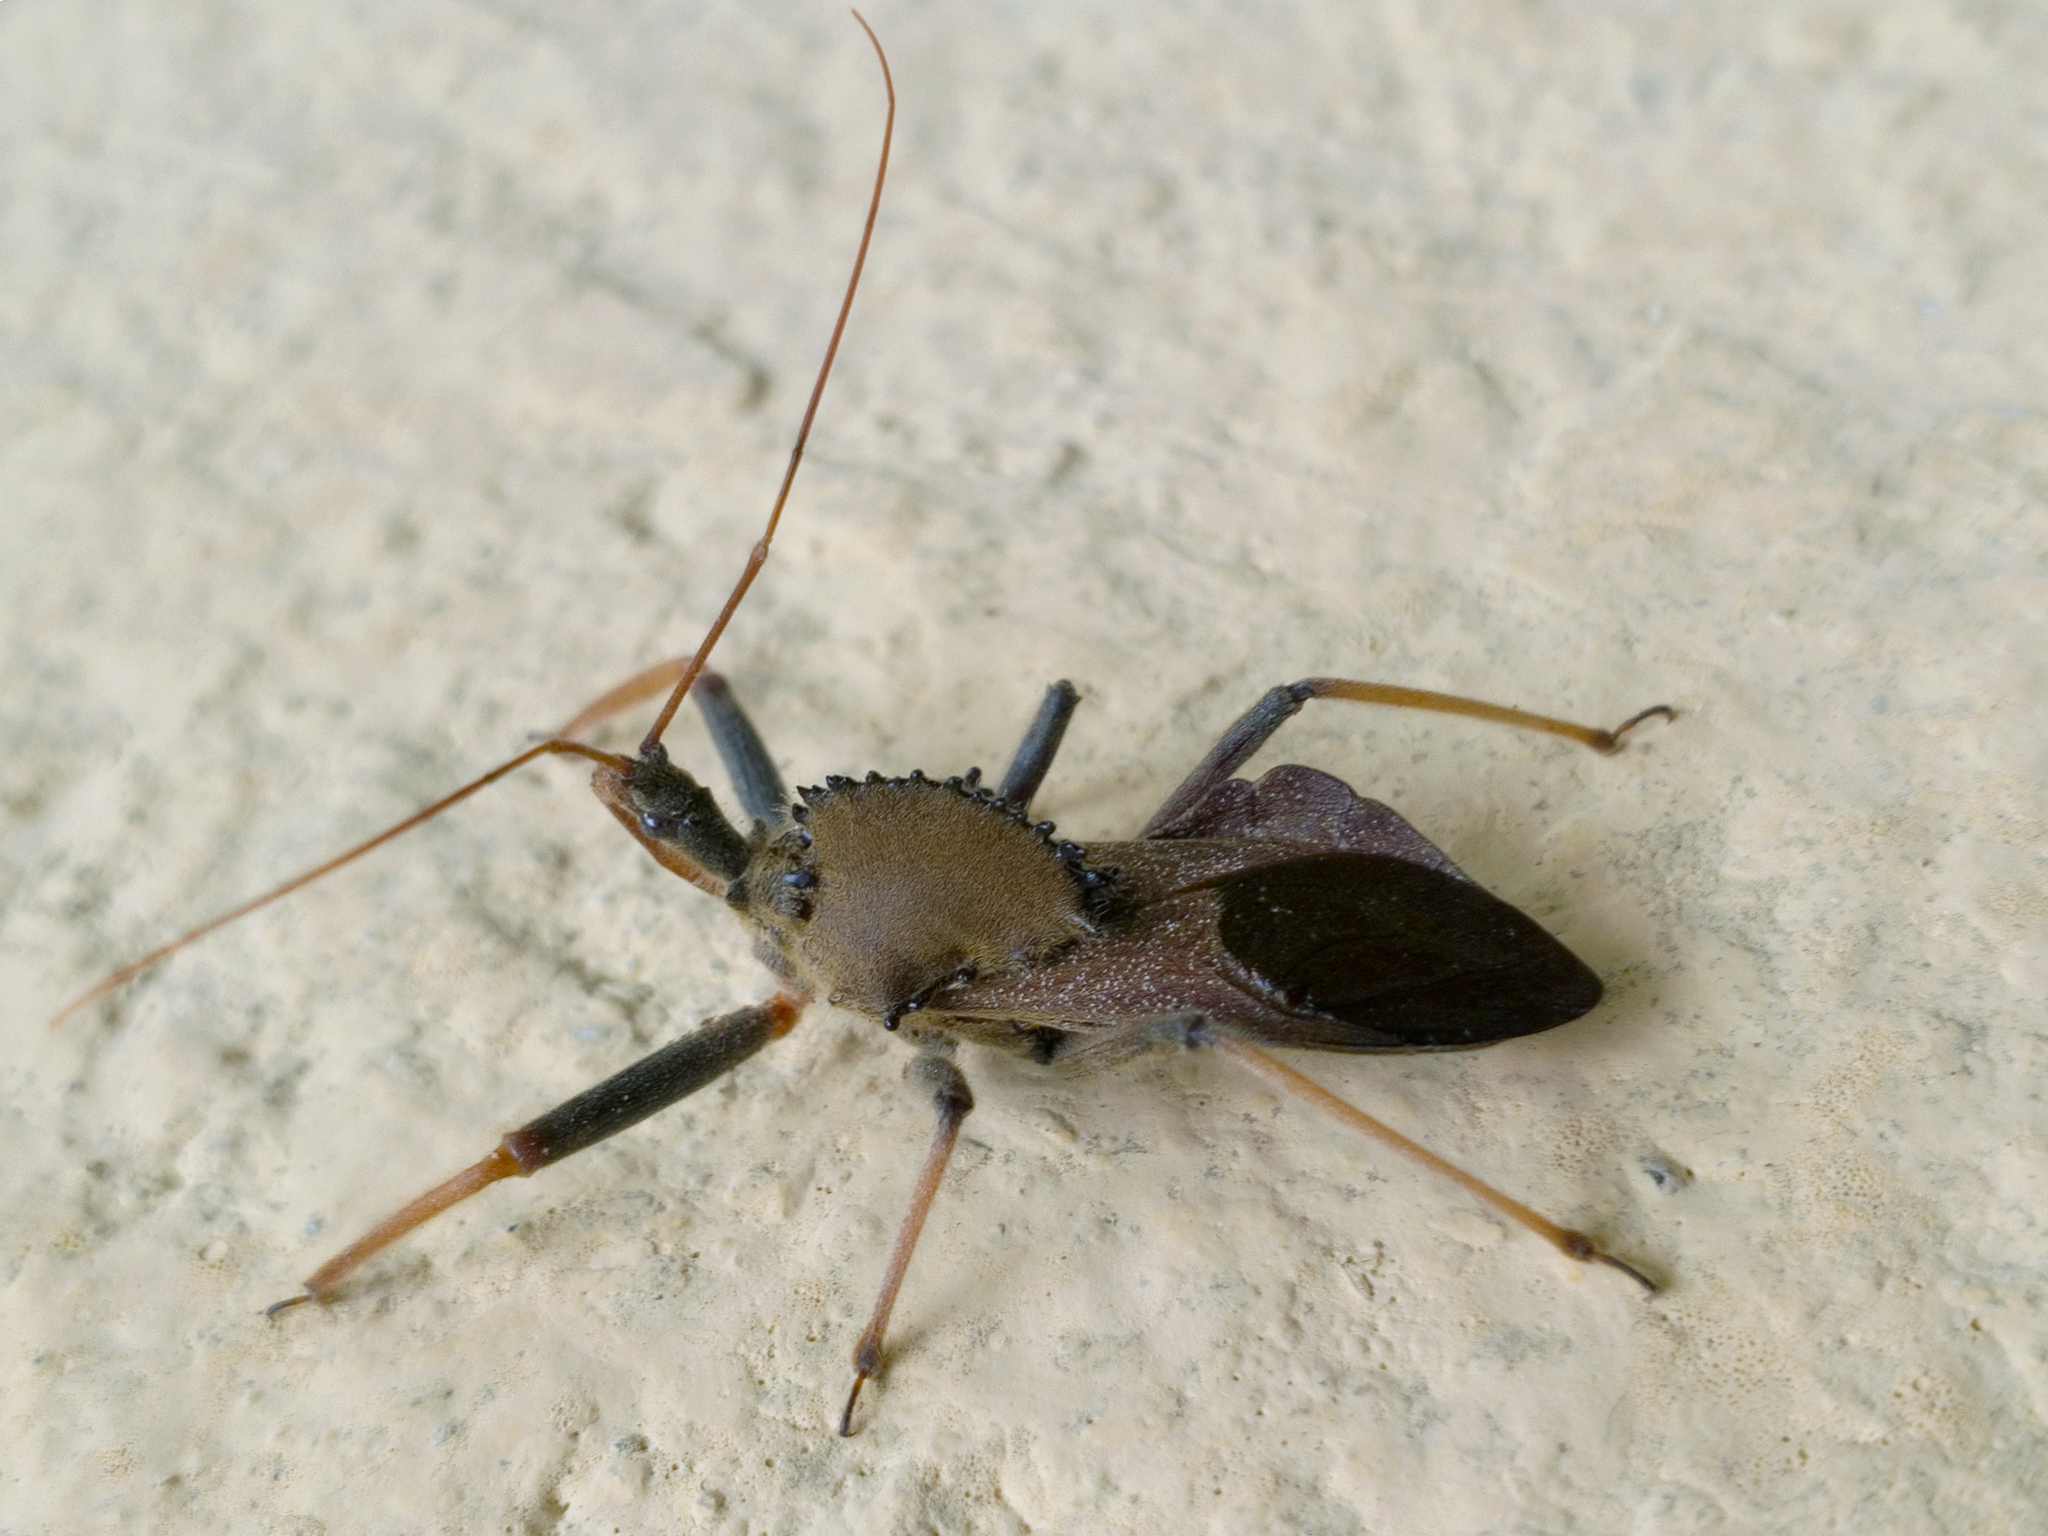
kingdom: Animalia
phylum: Arthropoda
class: Insecta
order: Hemiptera
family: Reduviidae
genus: Arilus
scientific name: Arilus carinatus
